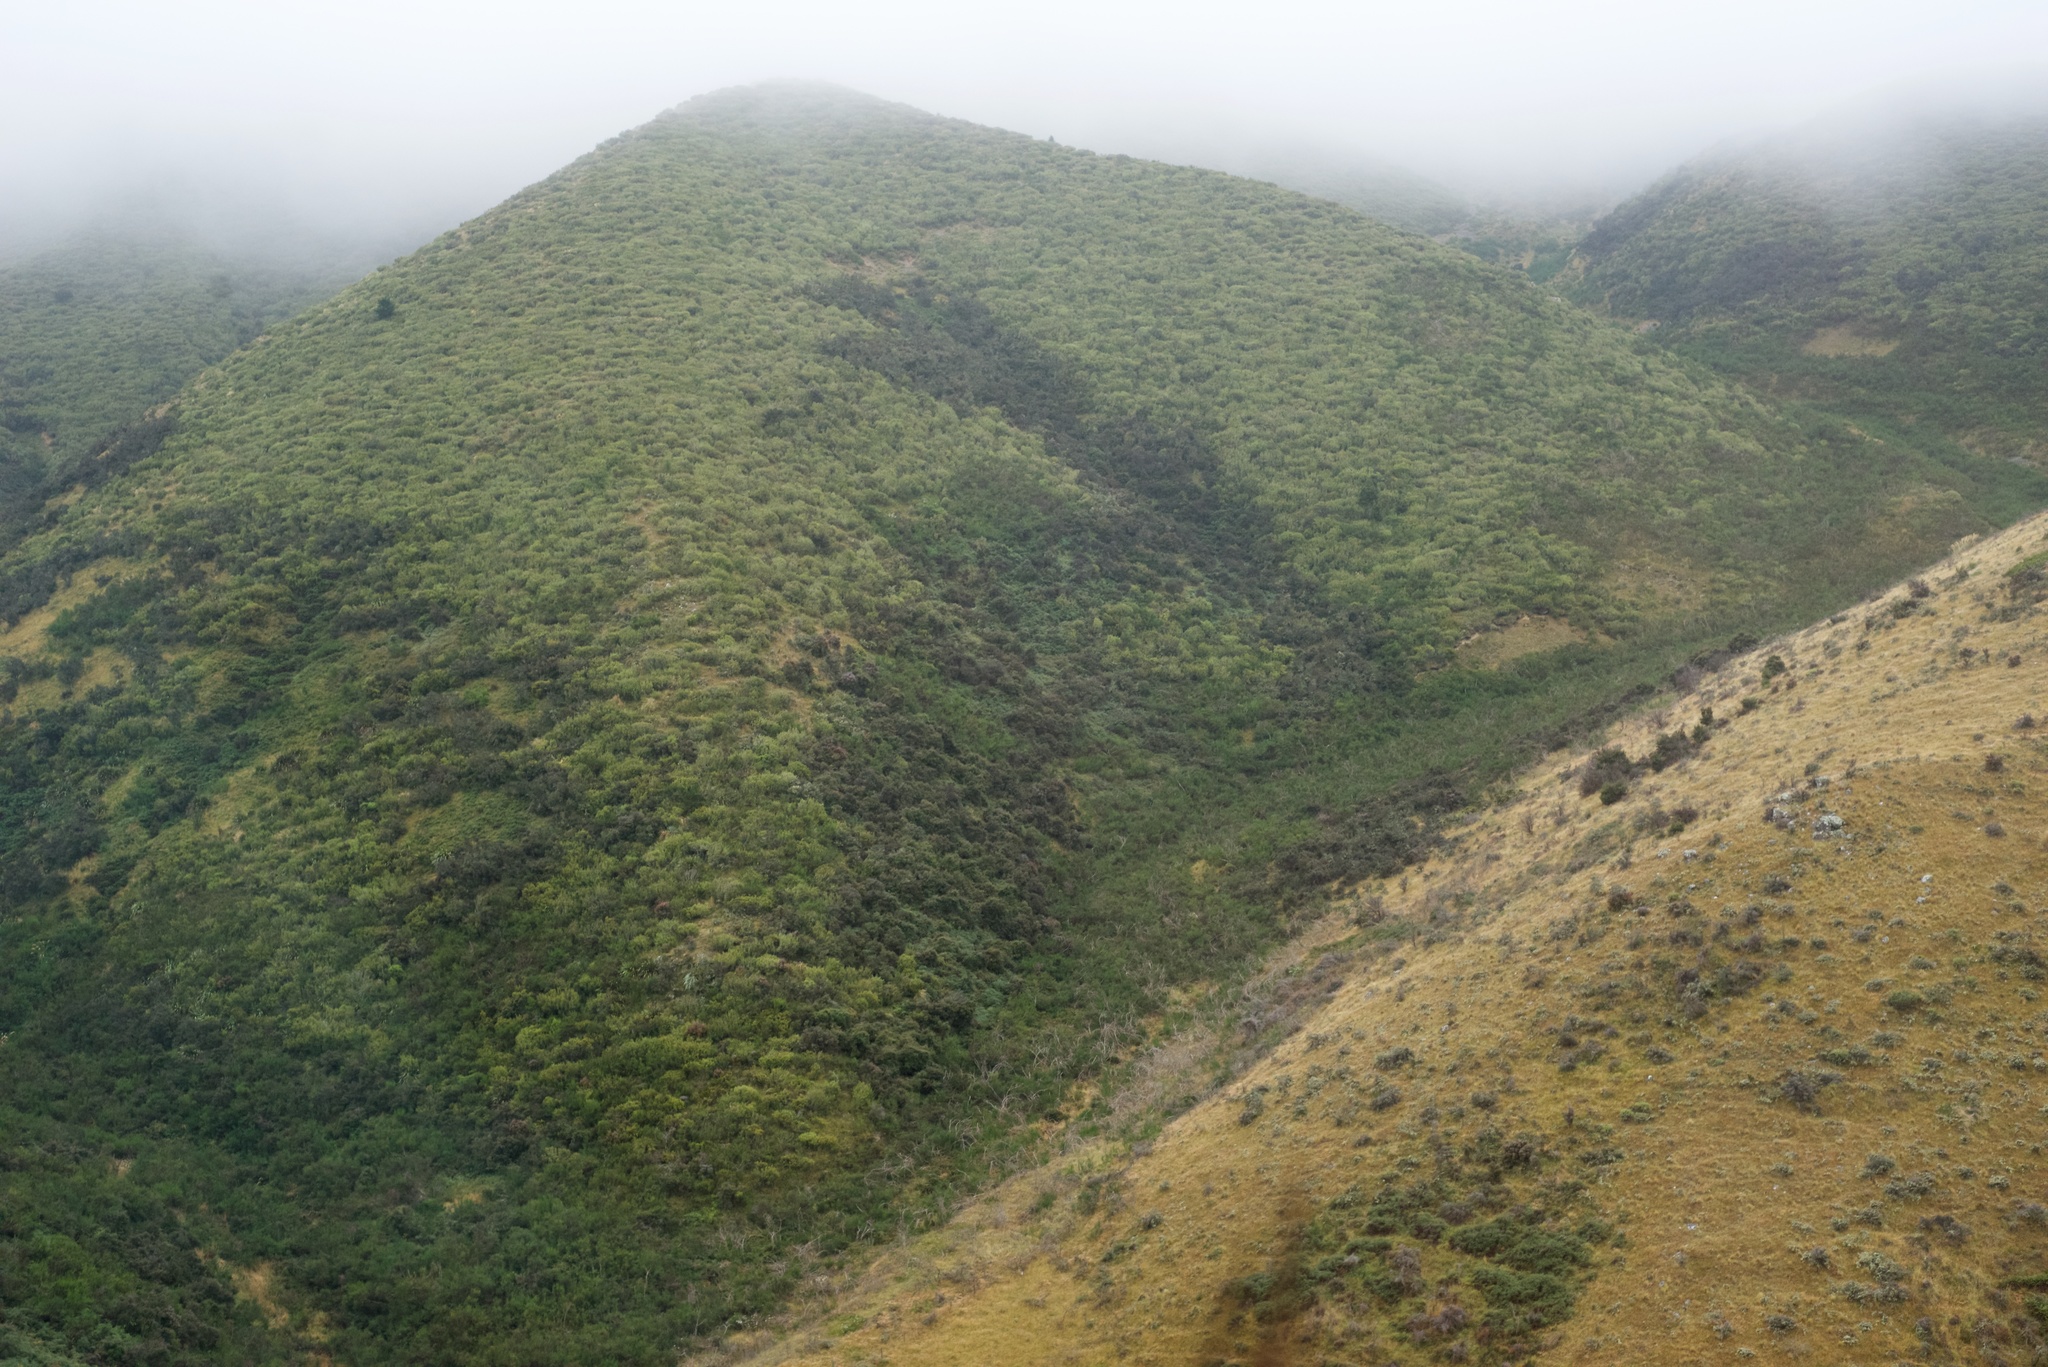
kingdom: Plantae
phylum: Tracheophyta
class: Magnoliopsida
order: Fabales
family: Fabaceae
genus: Cytisus
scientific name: Cytisus scoparius
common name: Scotch broom
